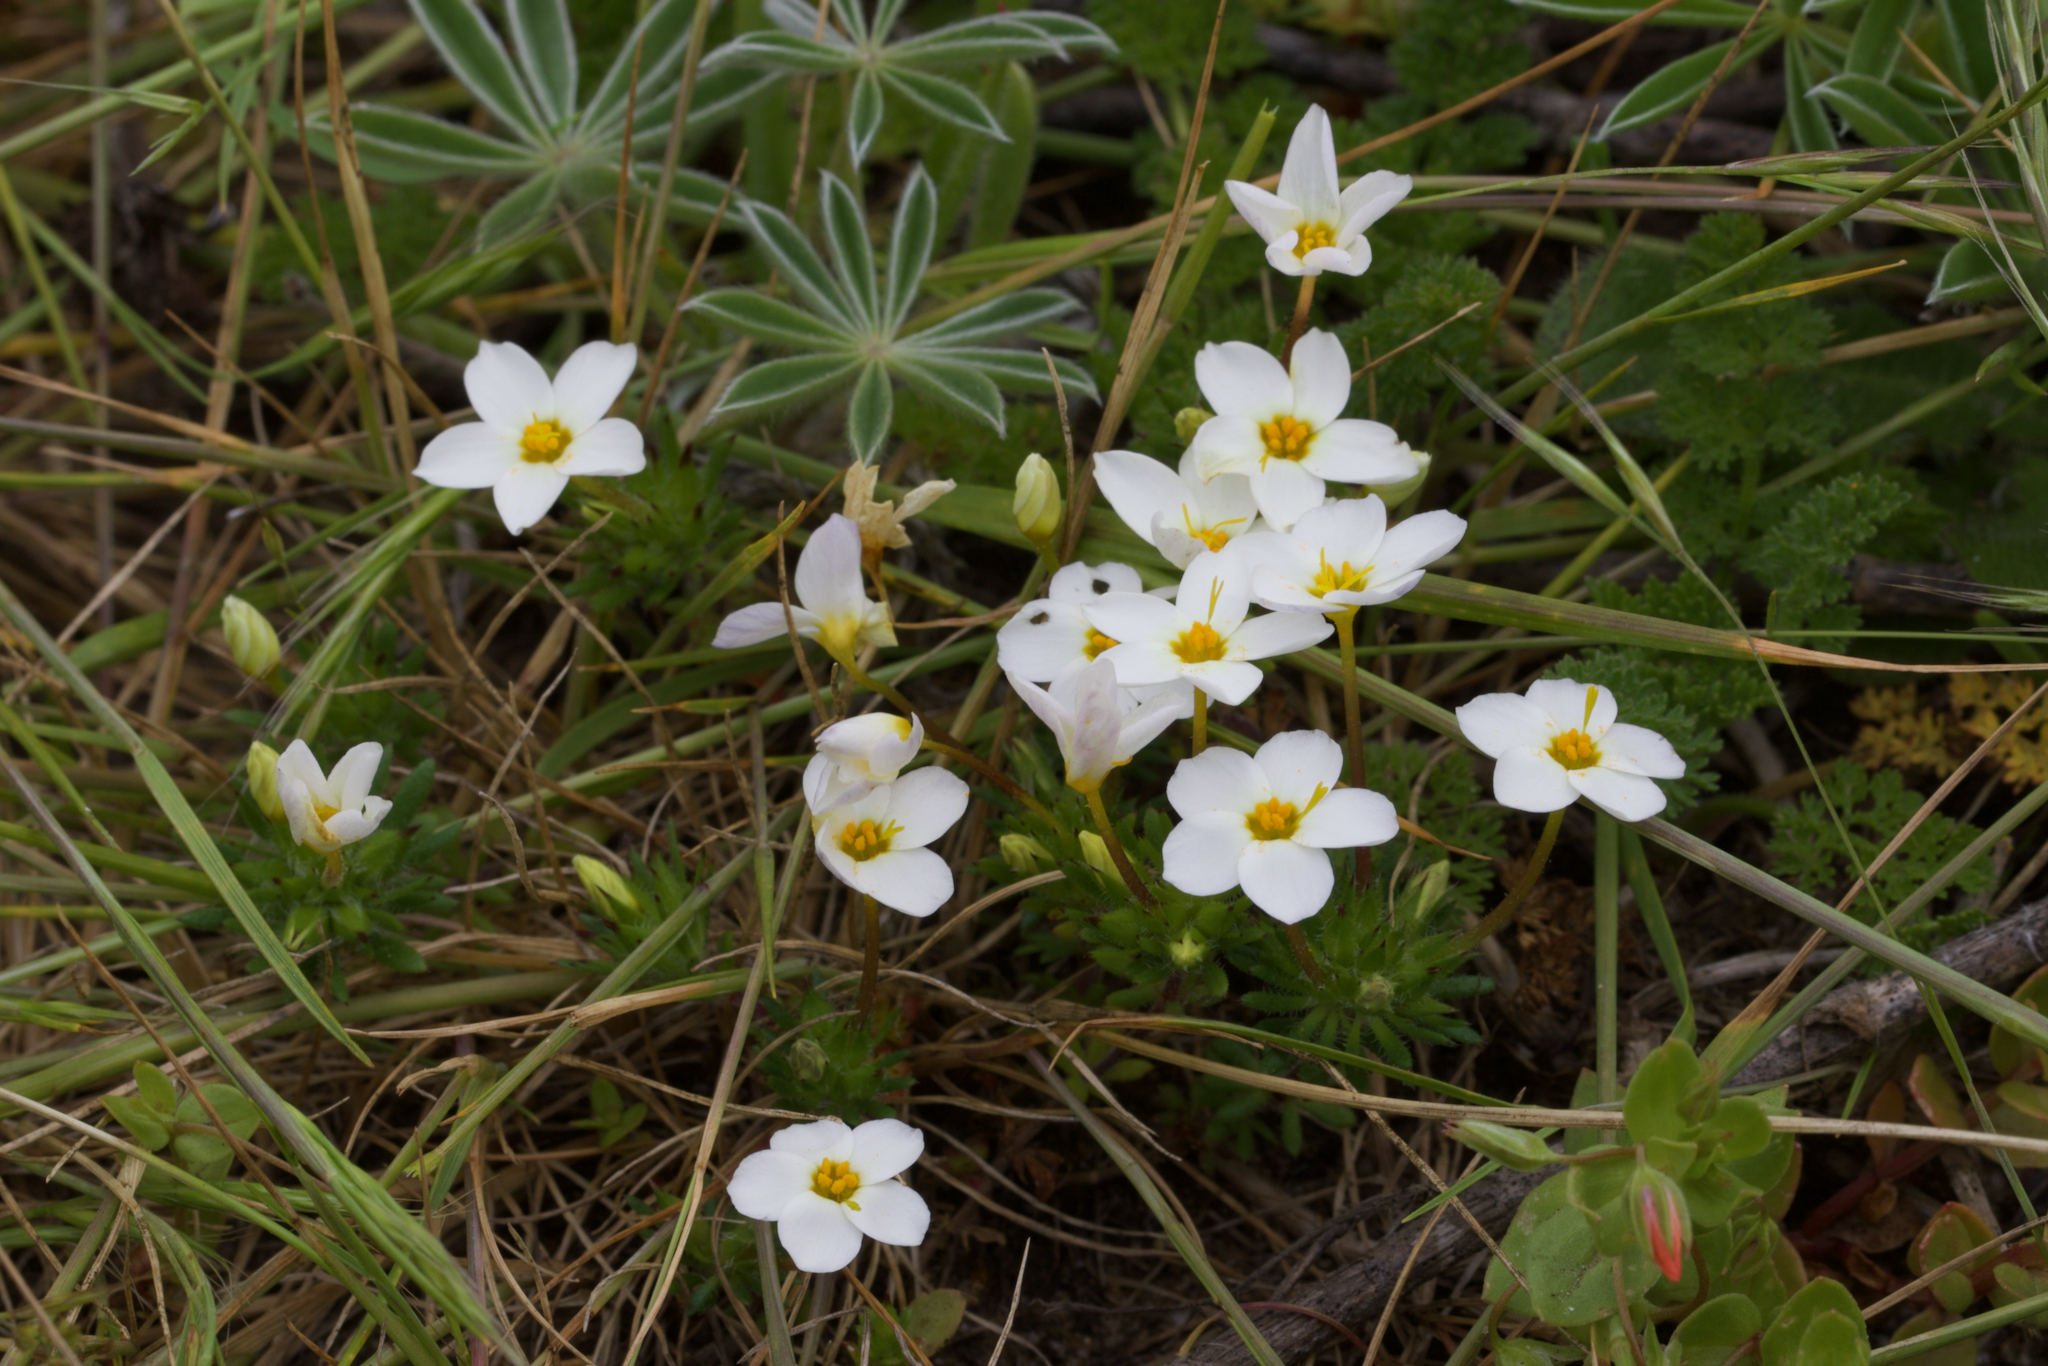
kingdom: Plantae
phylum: Tracheophyta
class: Magnoliopsida
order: Ericales
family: Polemoniaceae
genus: Leptosiphon
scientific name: Leptosiphon rosaceus
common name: Rose linanthus
